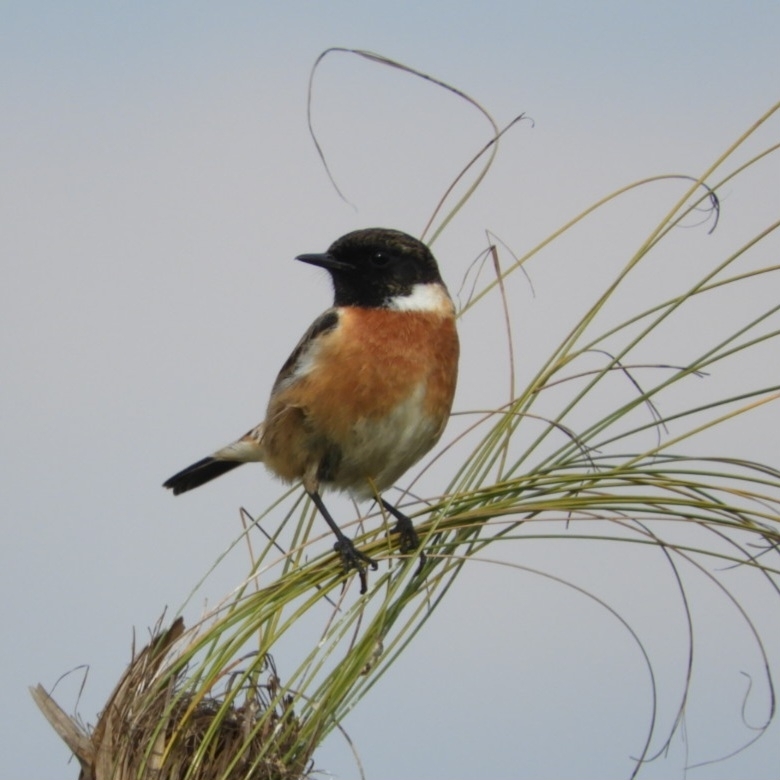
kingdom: Animalia
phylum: Chordata
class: Aves
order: Passeriformes
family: Muscicapidae
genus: Saxicola
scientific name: Saxicola rubicola
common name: European stonechat
